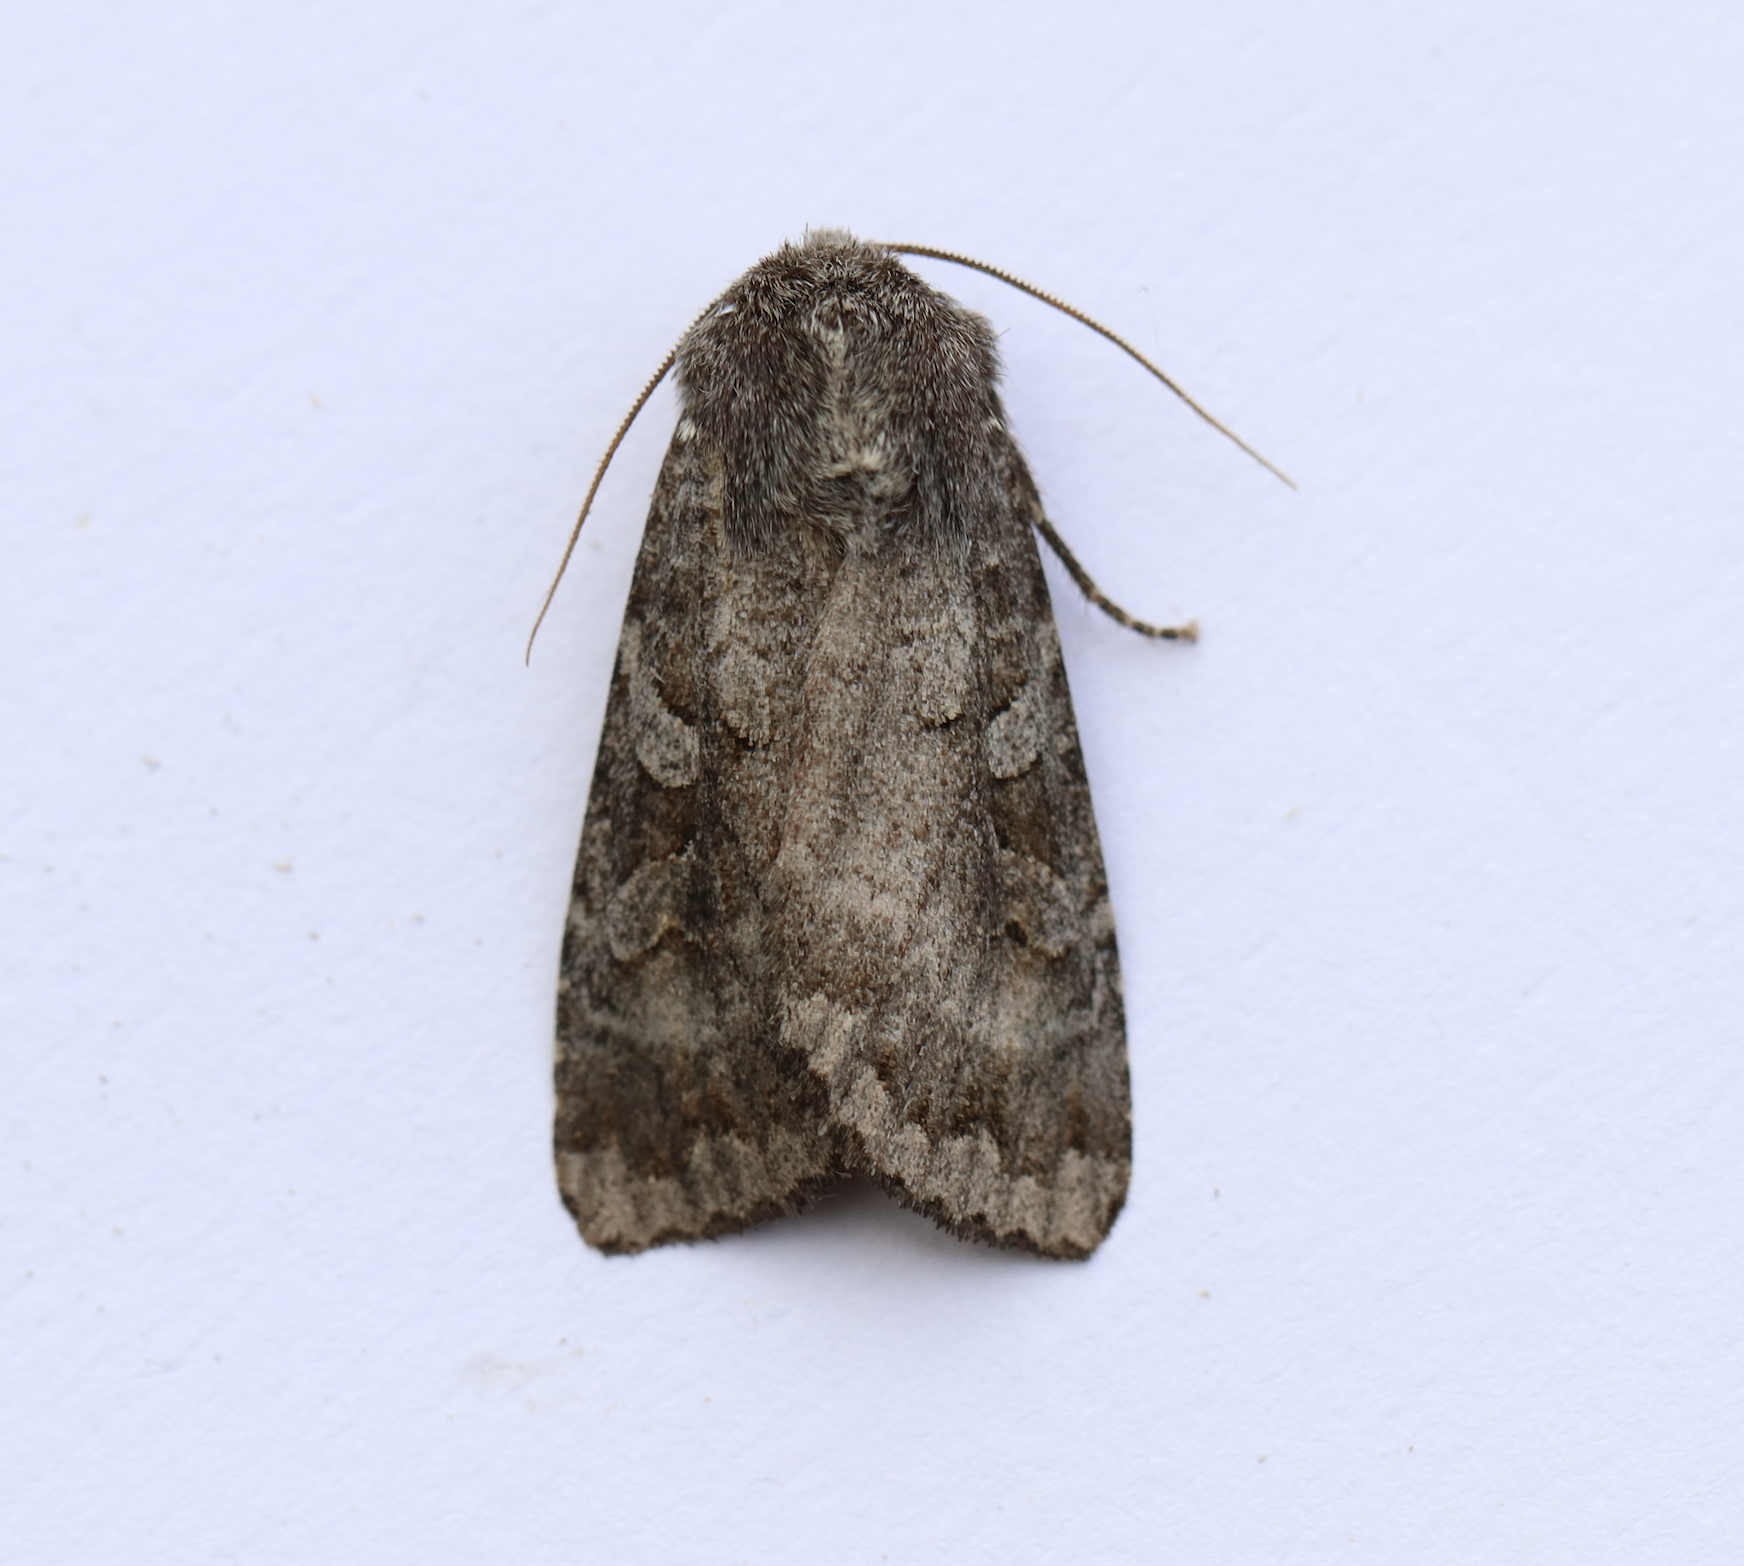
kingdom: Animalia
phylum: Arthropoda
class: Insecta
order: Lepidoptera
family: Noctuidae
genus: Eurois
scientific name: Eurois astricta
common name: Great brown dart
